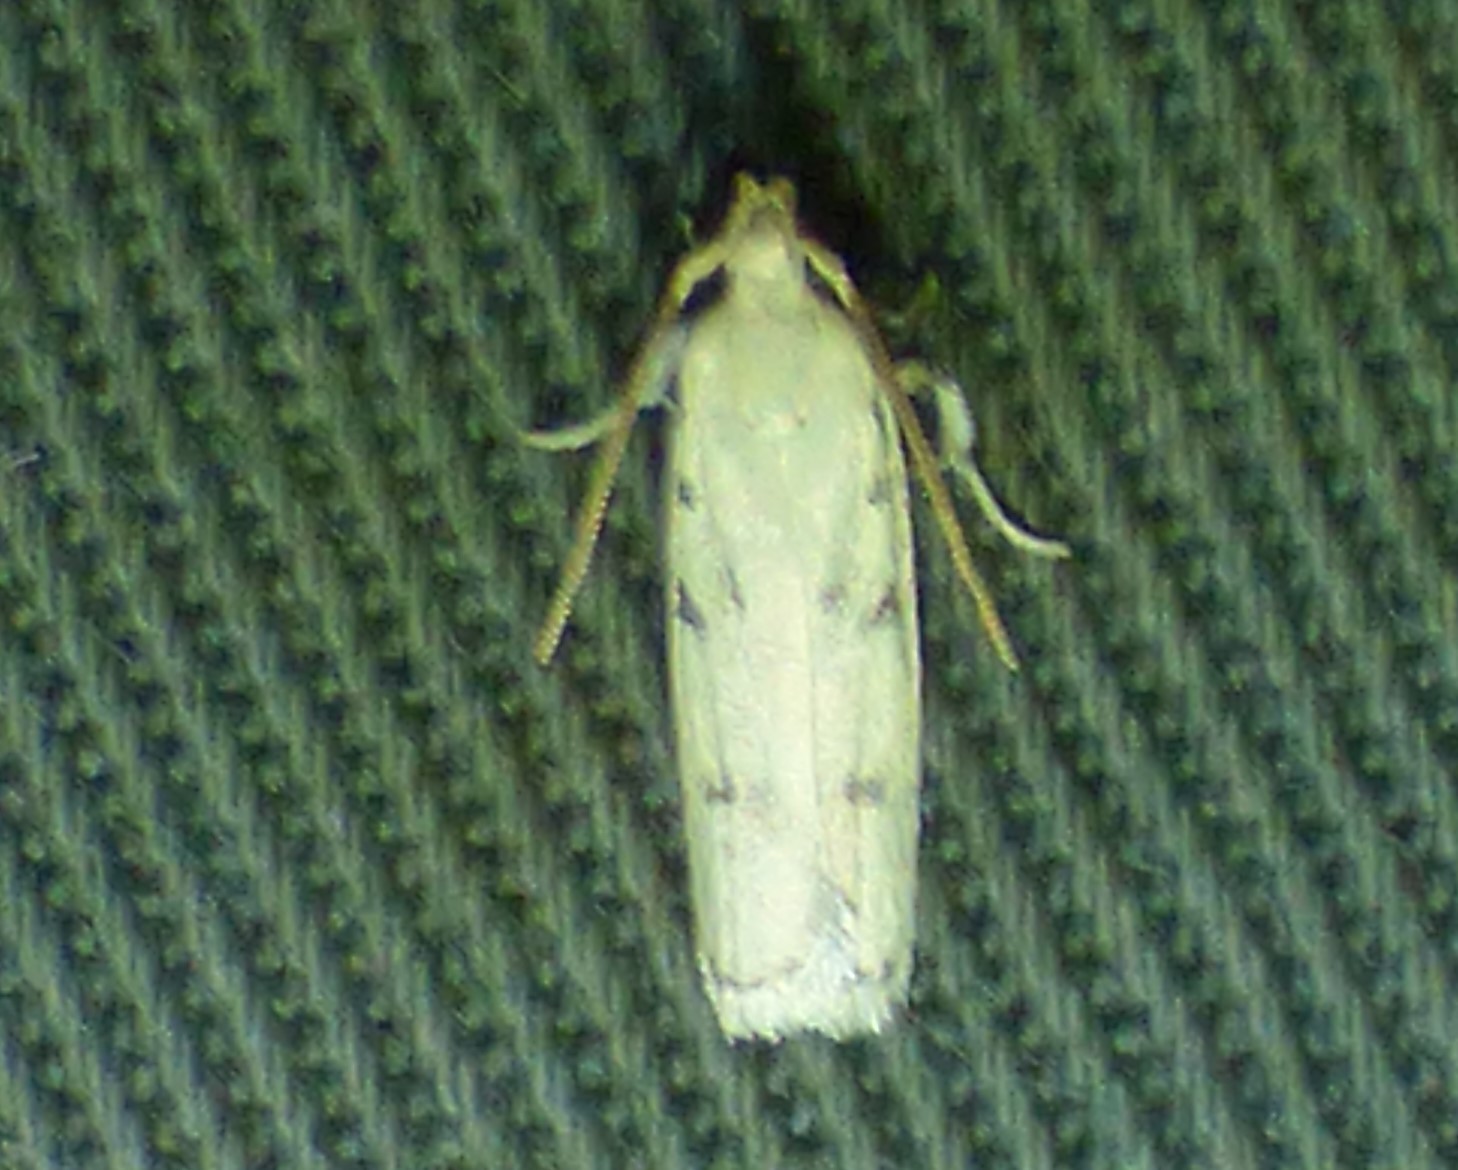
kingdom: Animalia
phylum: Arthropoda
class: Insecta
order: Lepidoptera
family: Autostichidae
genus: Glyphidocera
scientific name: Glyphidocera lactiflosella
